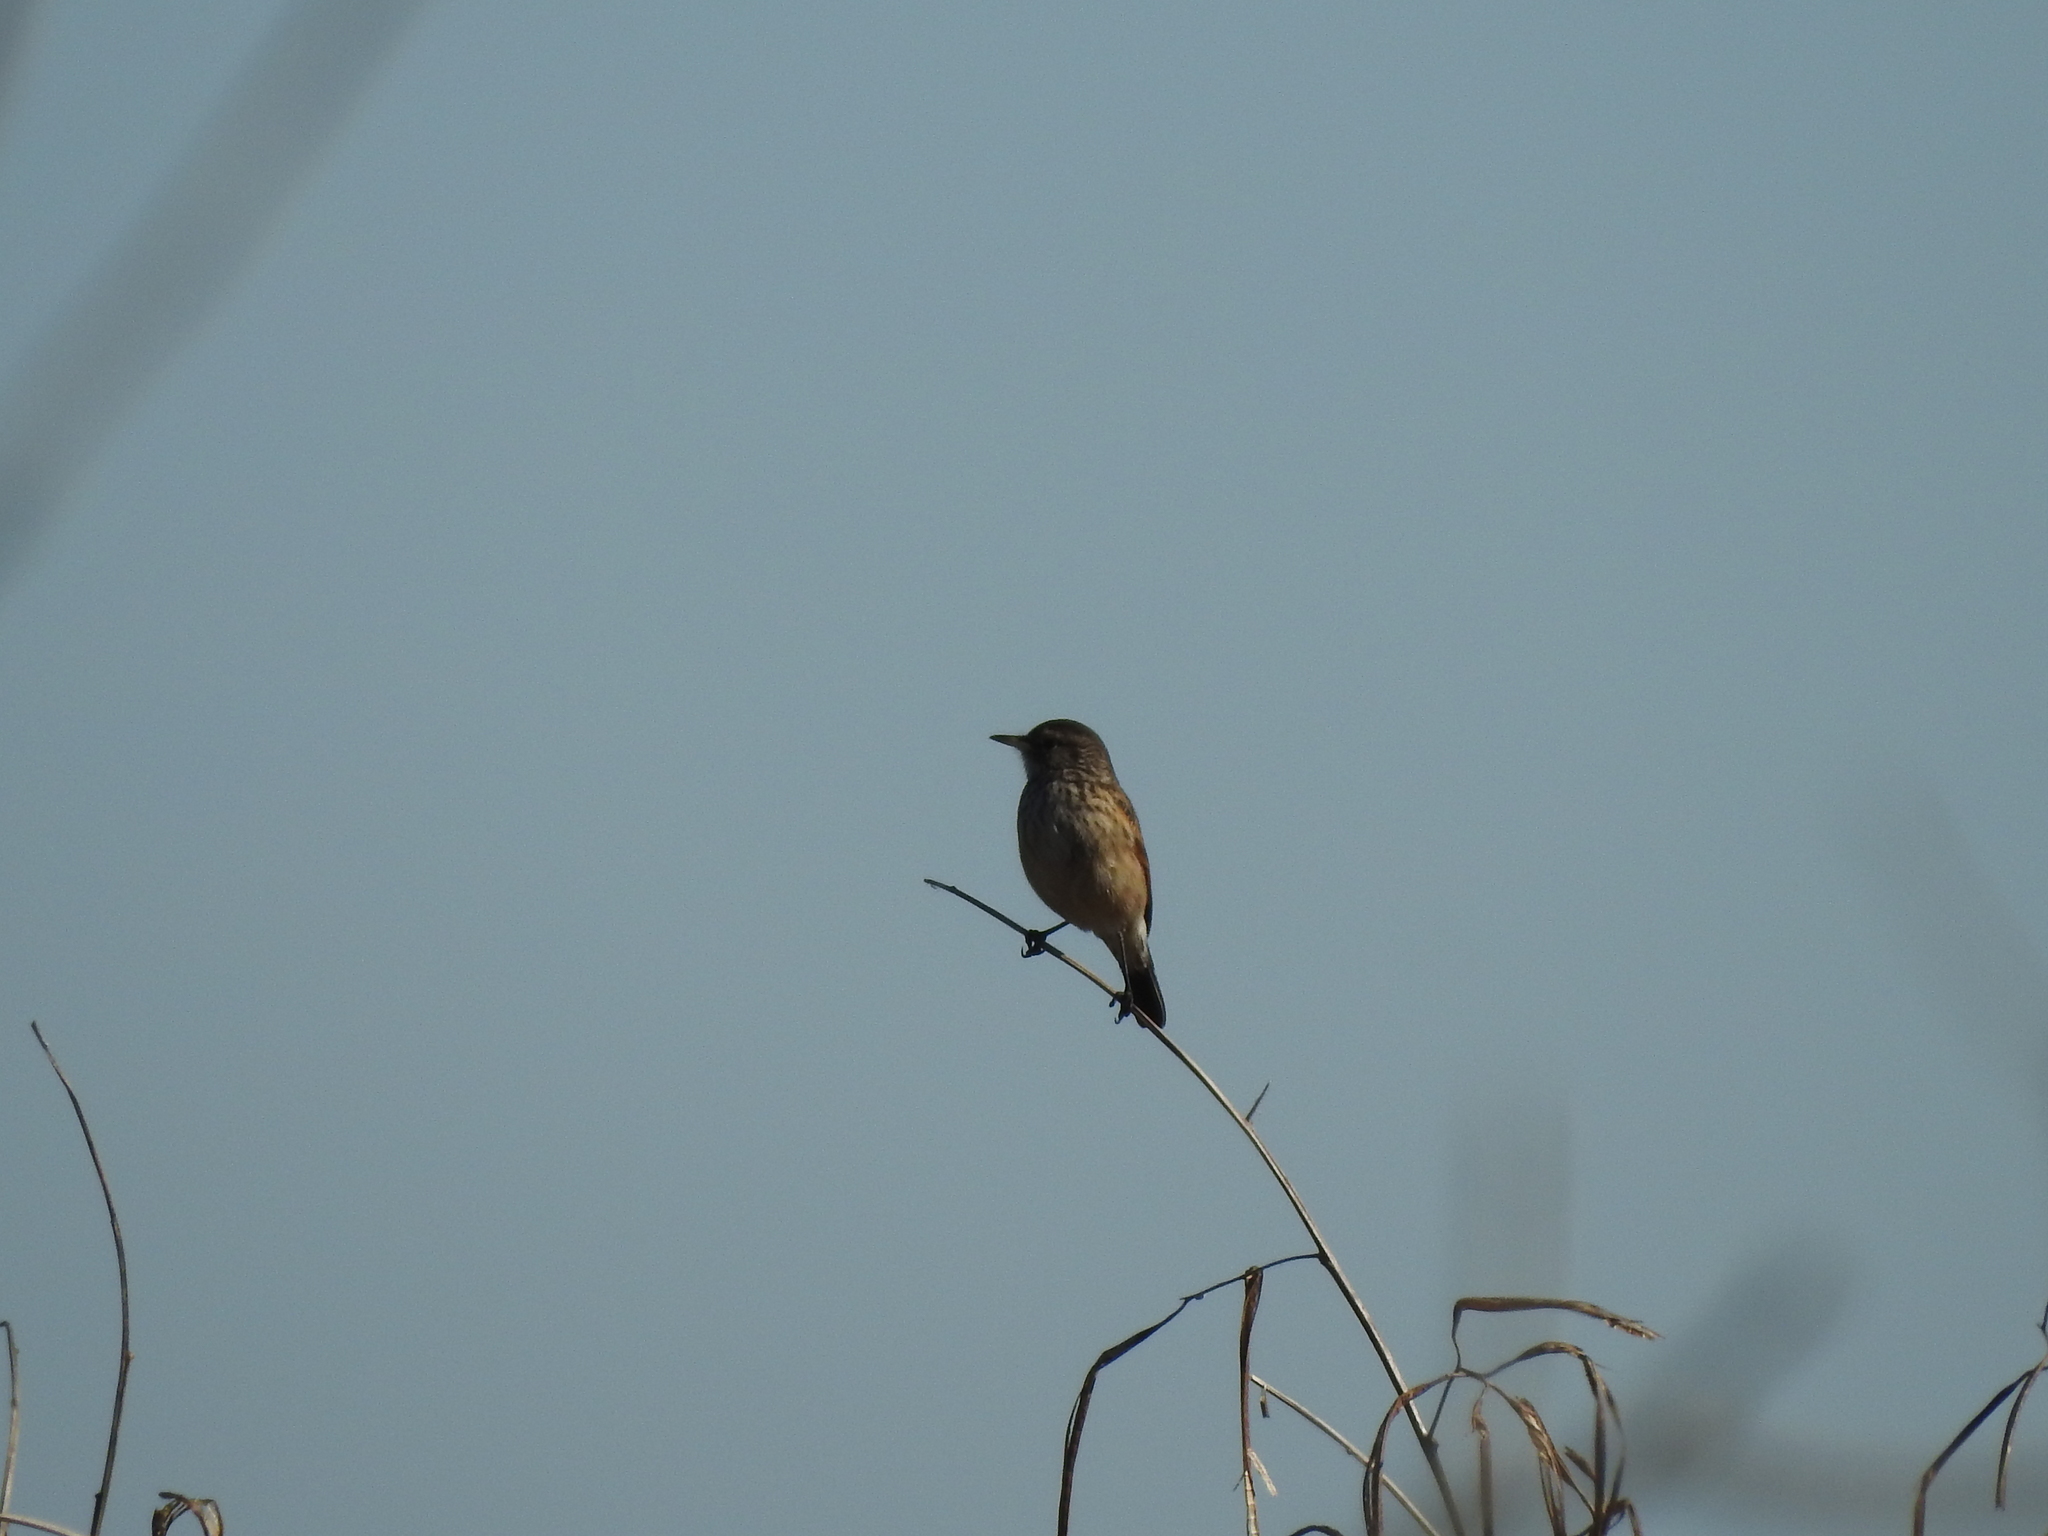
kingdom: Animalia
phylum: Chordata
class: Aves
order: Passeriformes
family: Tyrannidae
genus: Hymenops
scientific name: Hymenops perspicillatus
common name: Spectacled tyrant
